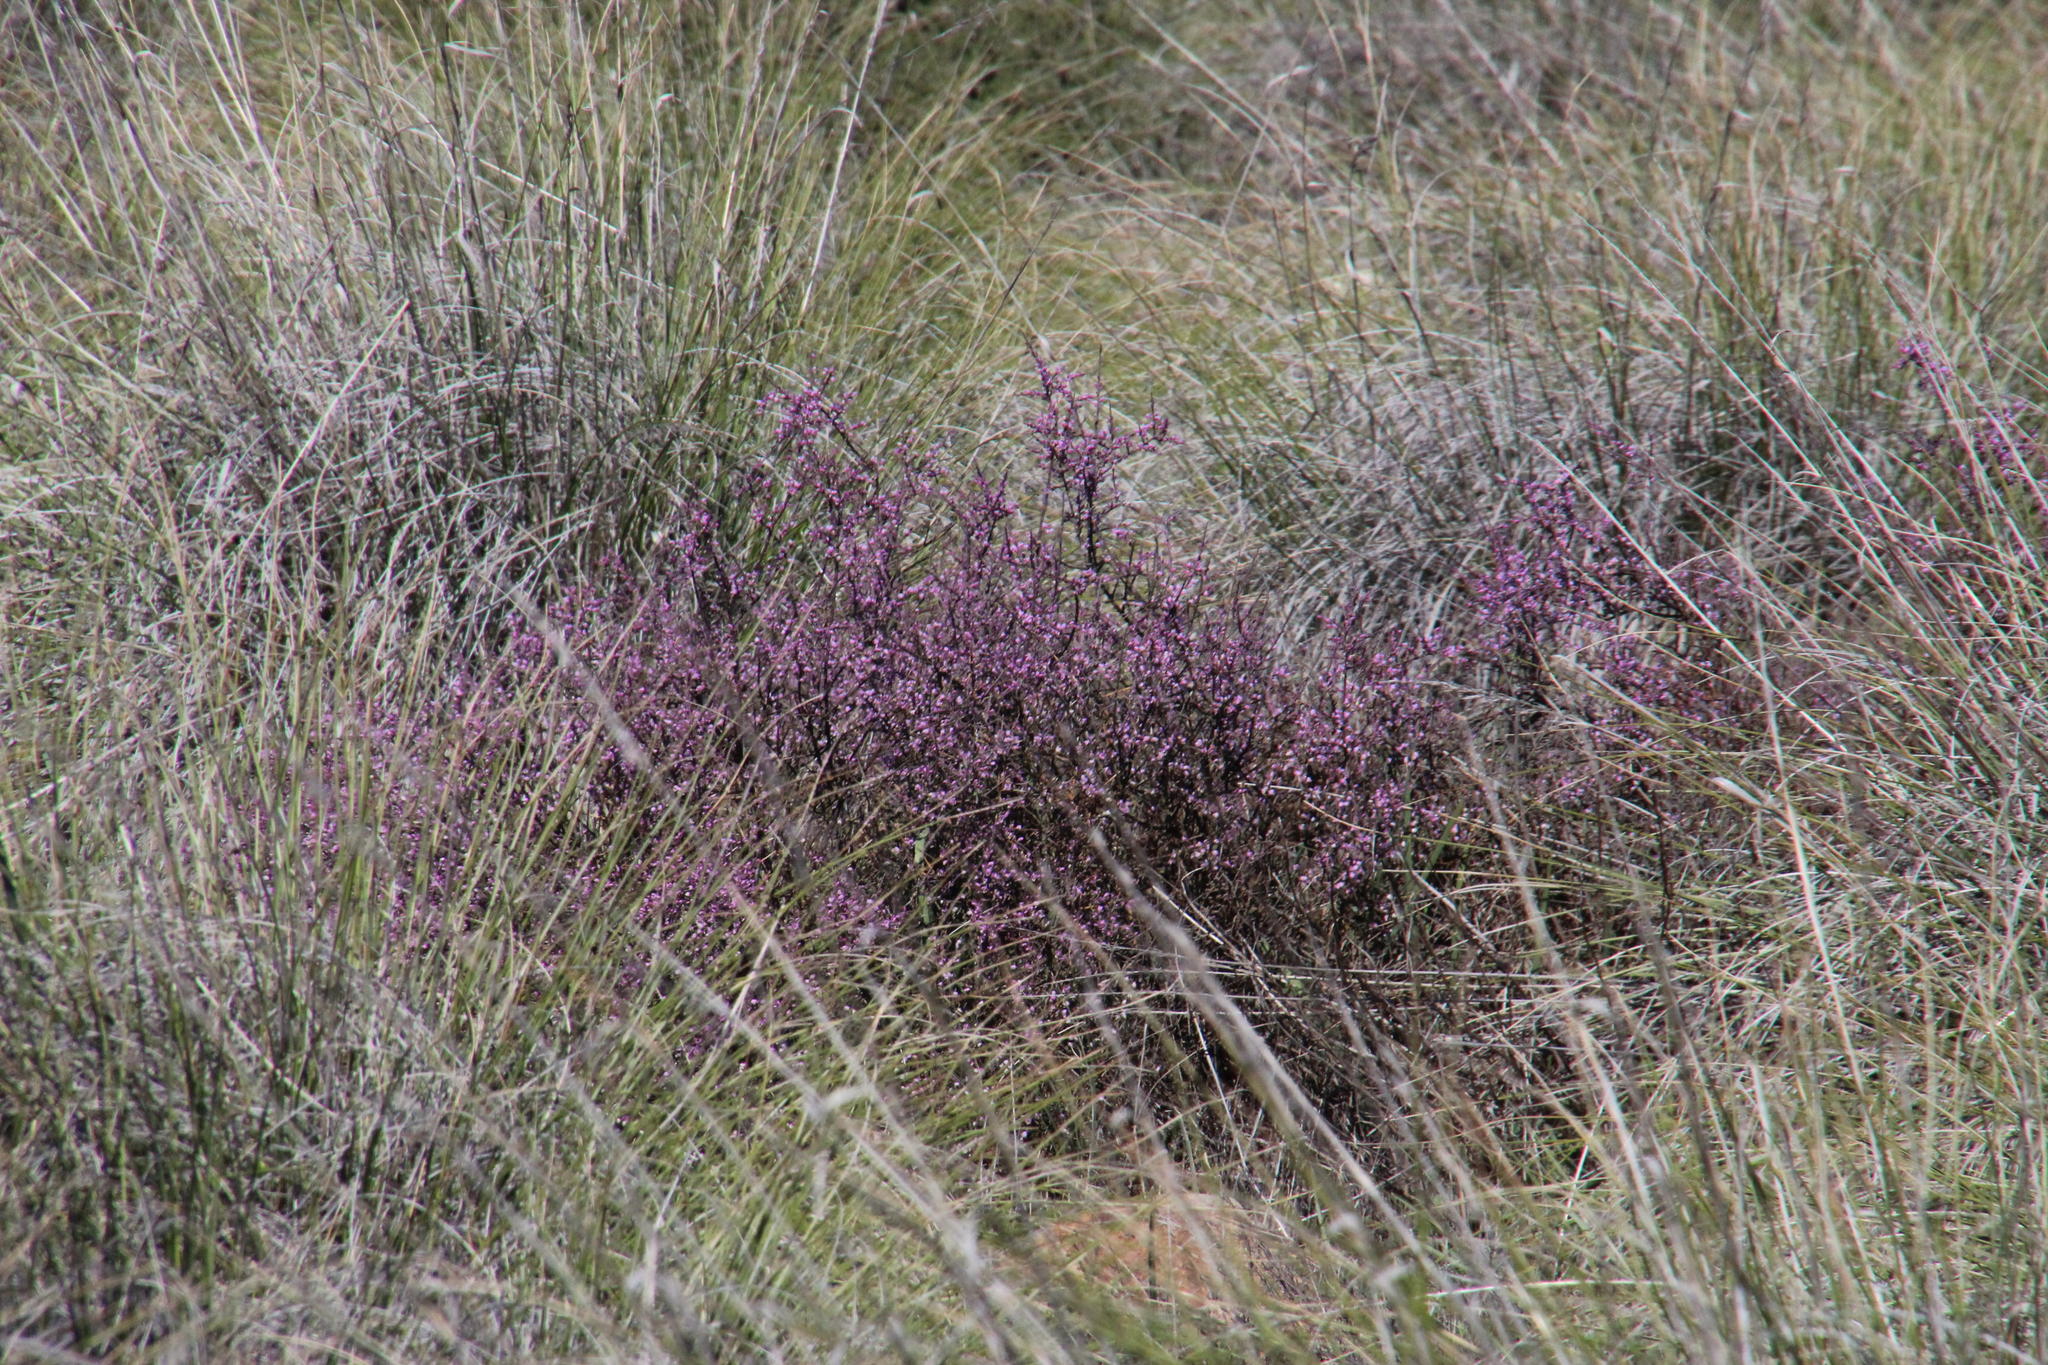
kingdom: Plantae
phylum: Tracheophyta
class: Magnoliopsida
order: Fabales
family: Polygalaceae
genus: Muraltia
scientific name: Muraltia spinosa
